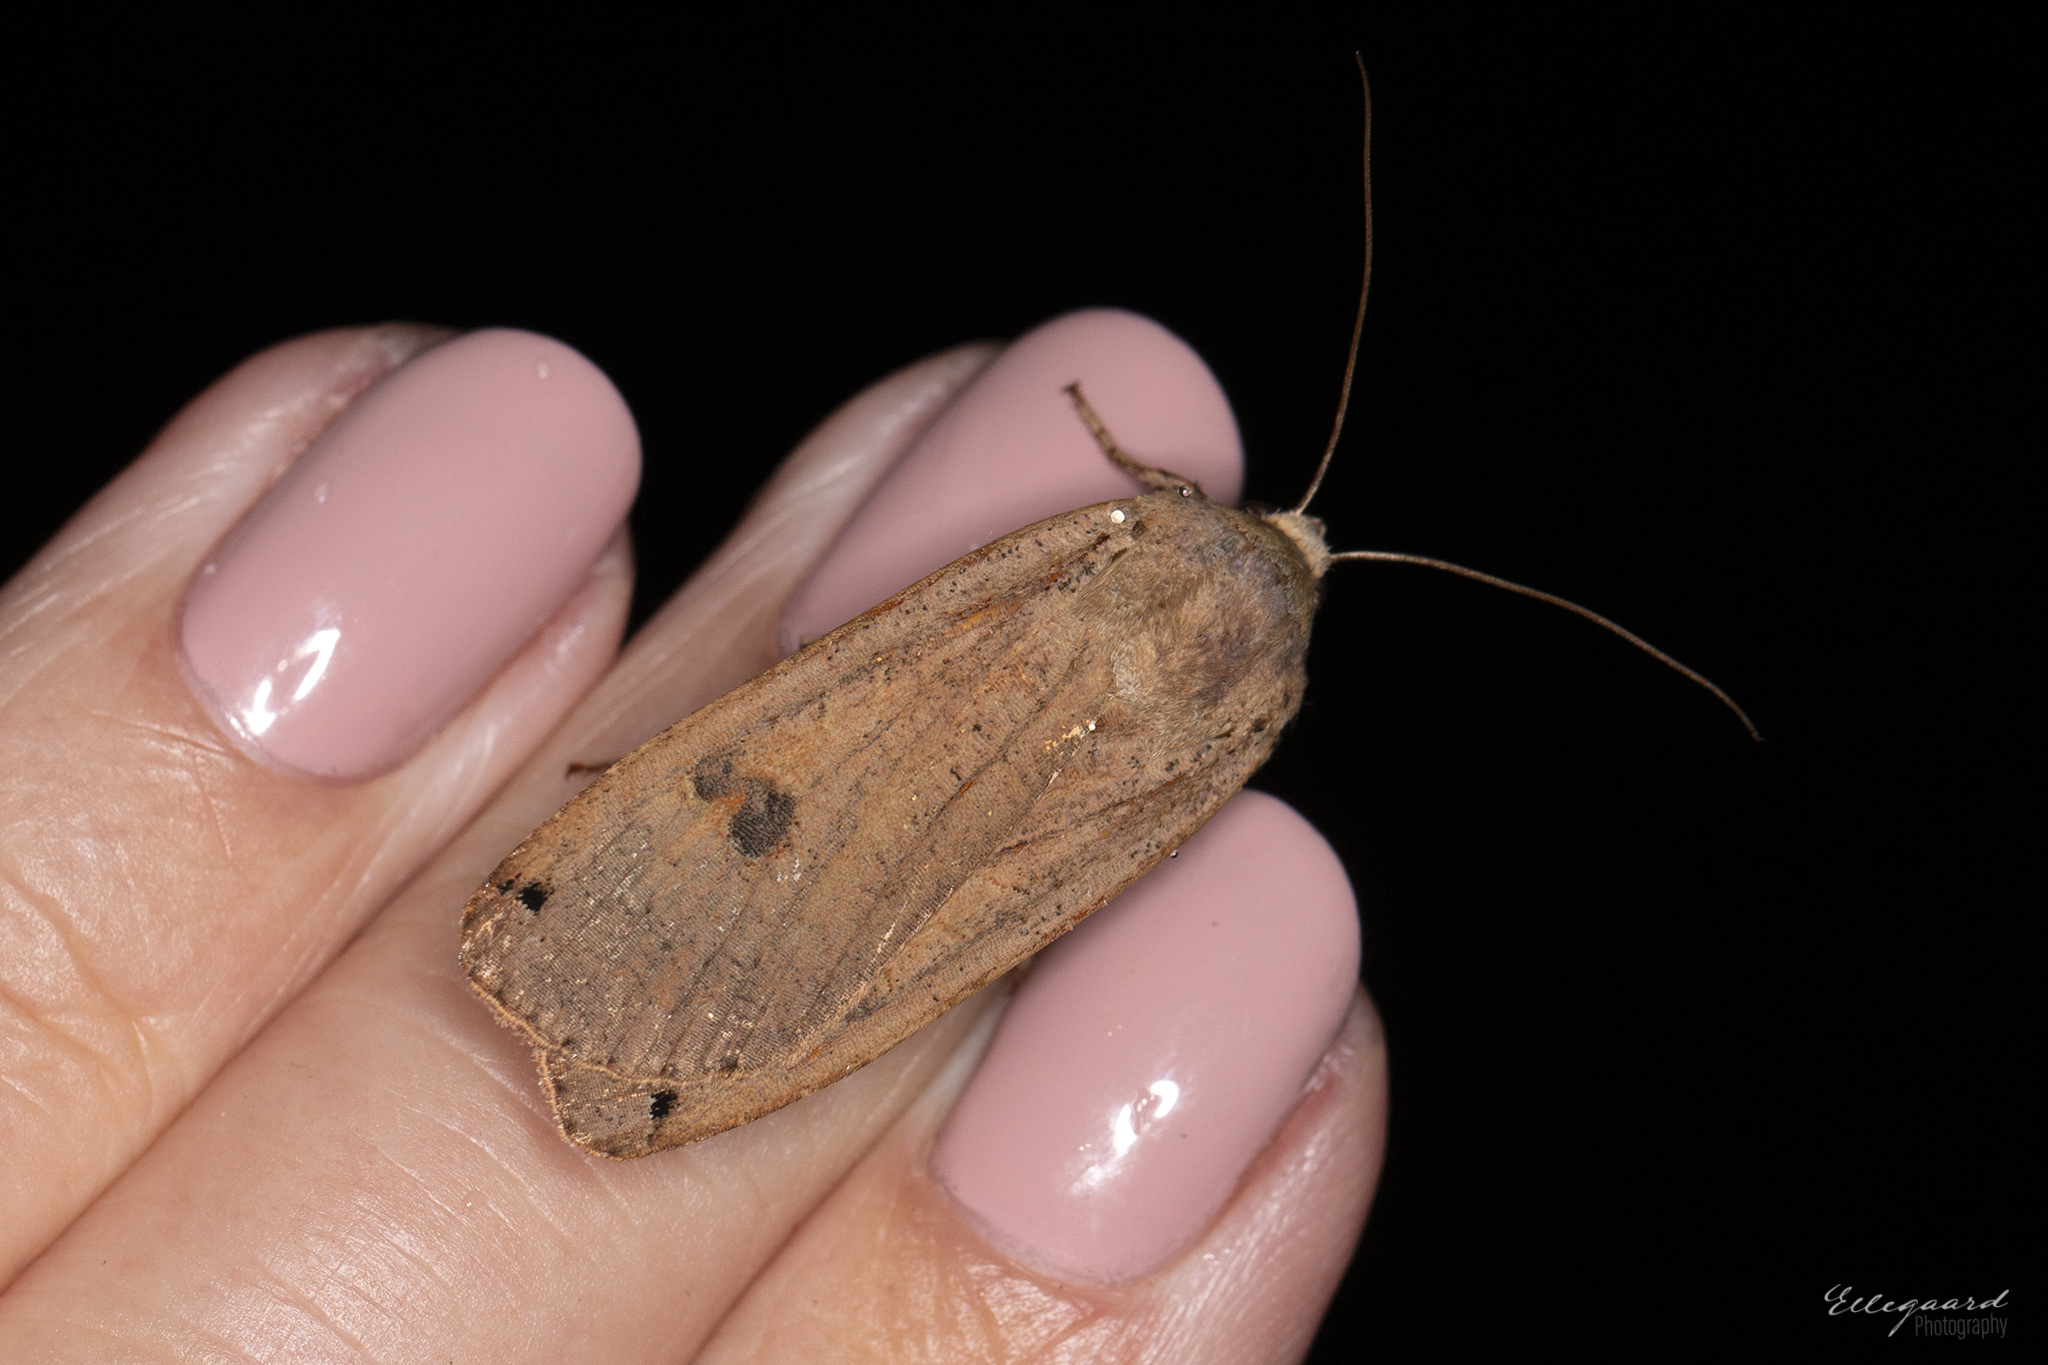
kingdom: Animalia
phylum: Arthropoda
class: Insecta
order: Lepidoptera
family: Noctuidae
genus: Noctua
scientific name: Noctua pronuba
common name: Large yellow underwing
